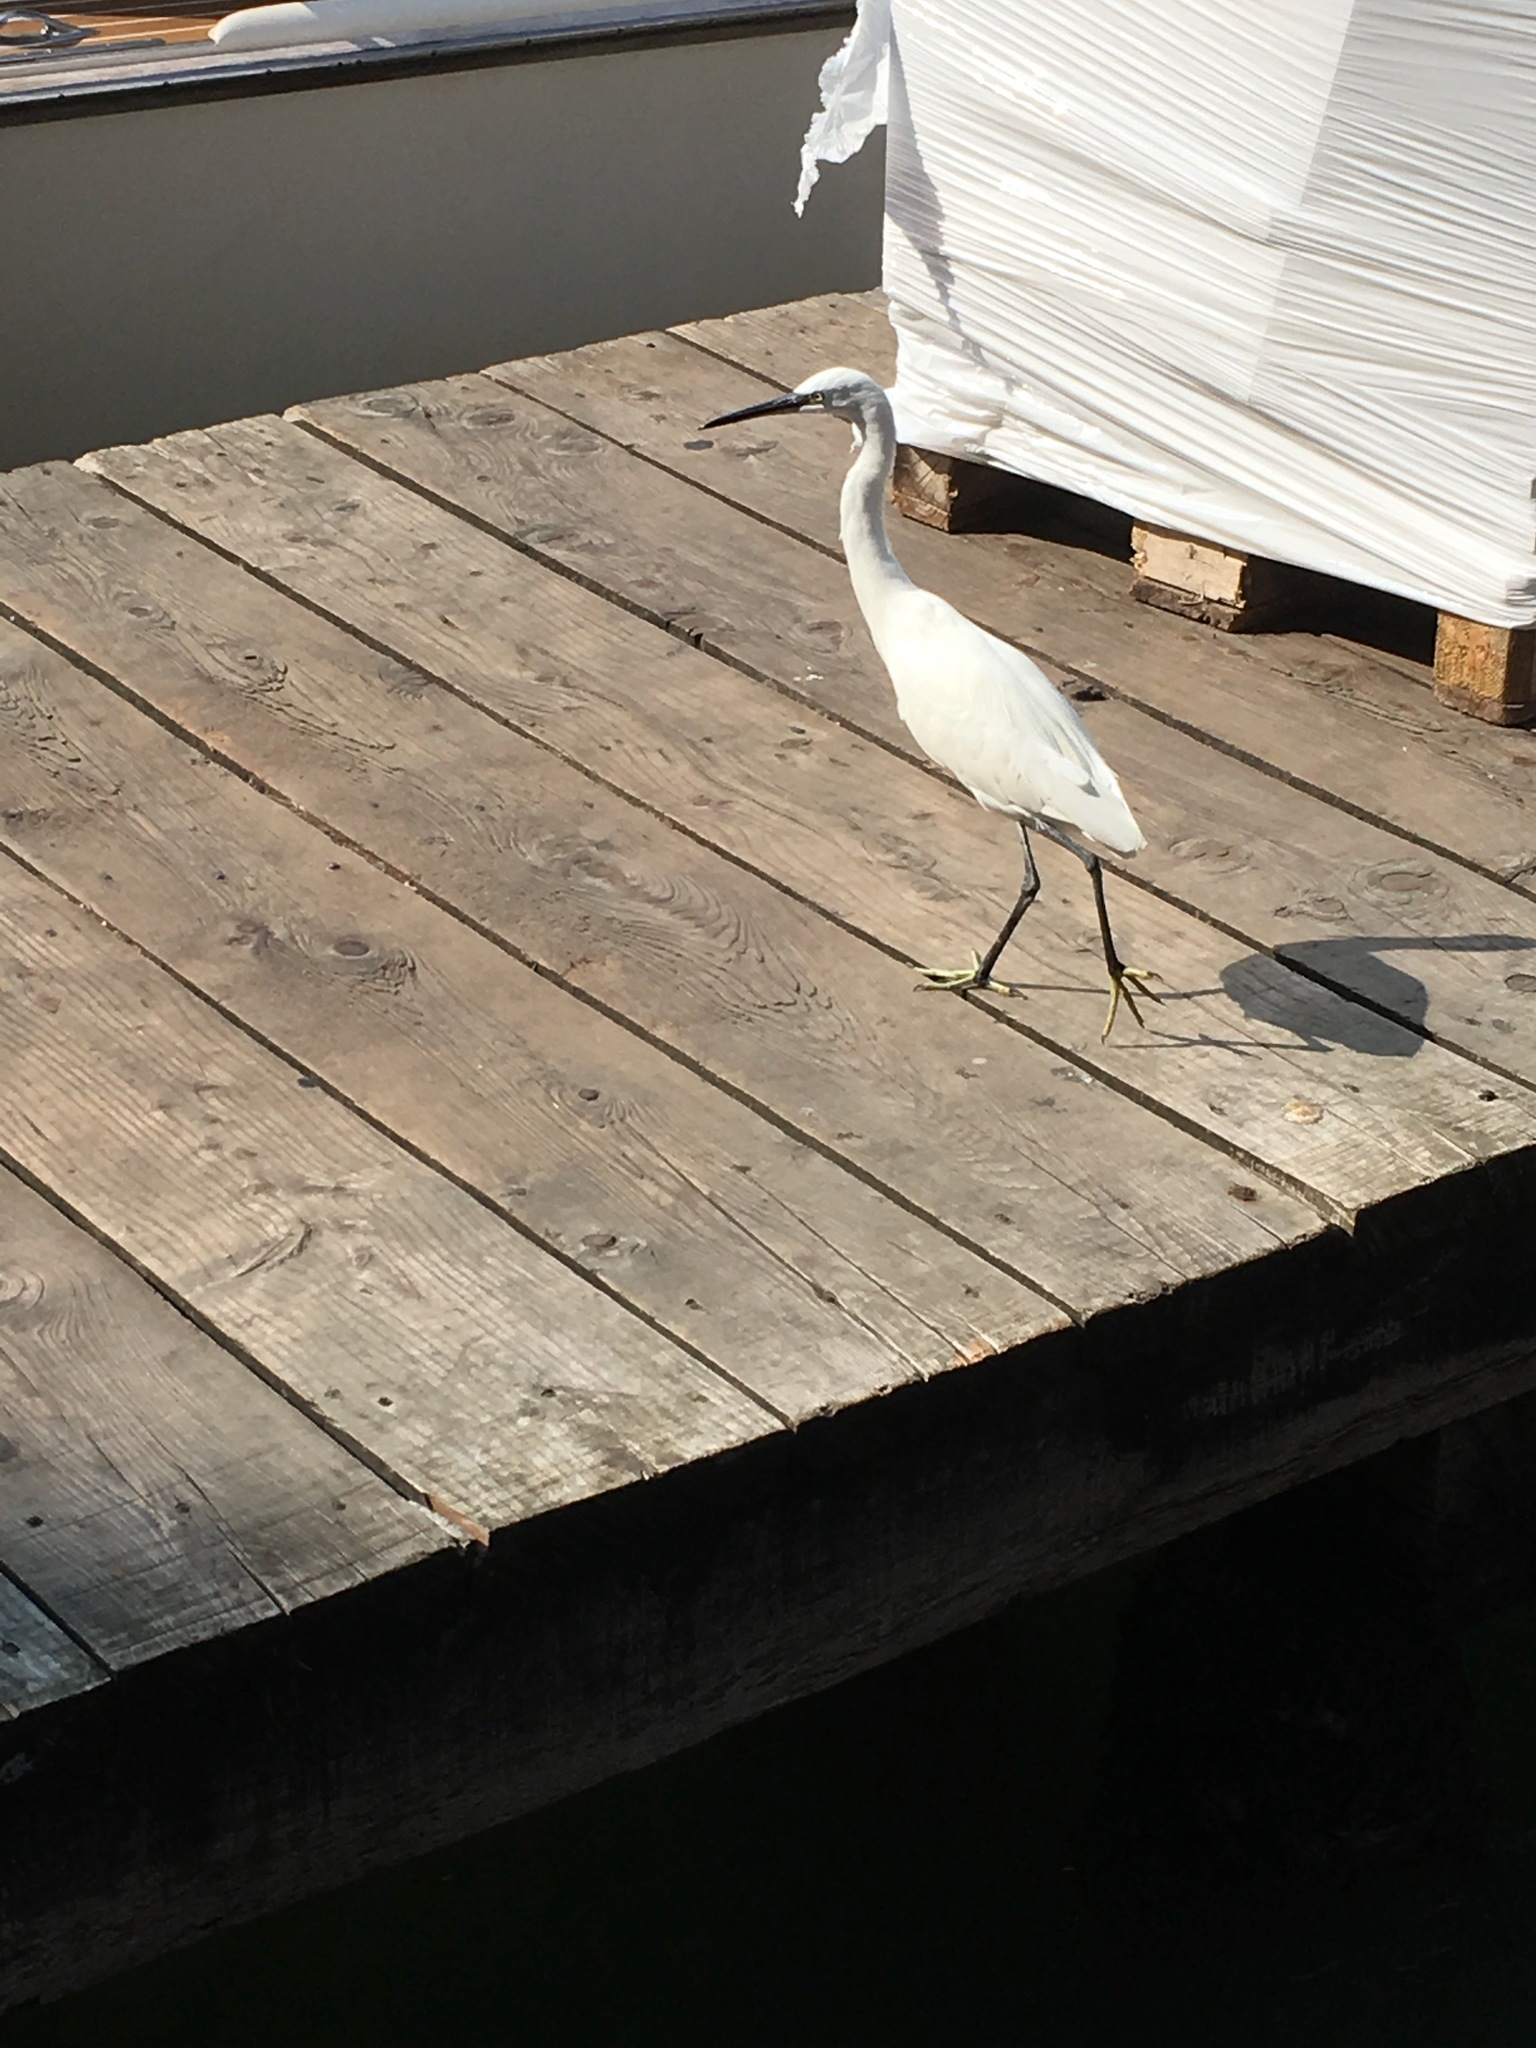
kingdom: Animalia
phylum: Chordata
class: Aves
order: Pelecaniformes
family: Ardeidae
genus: Egretta
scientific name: Egretta garzetta
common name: Little egret
